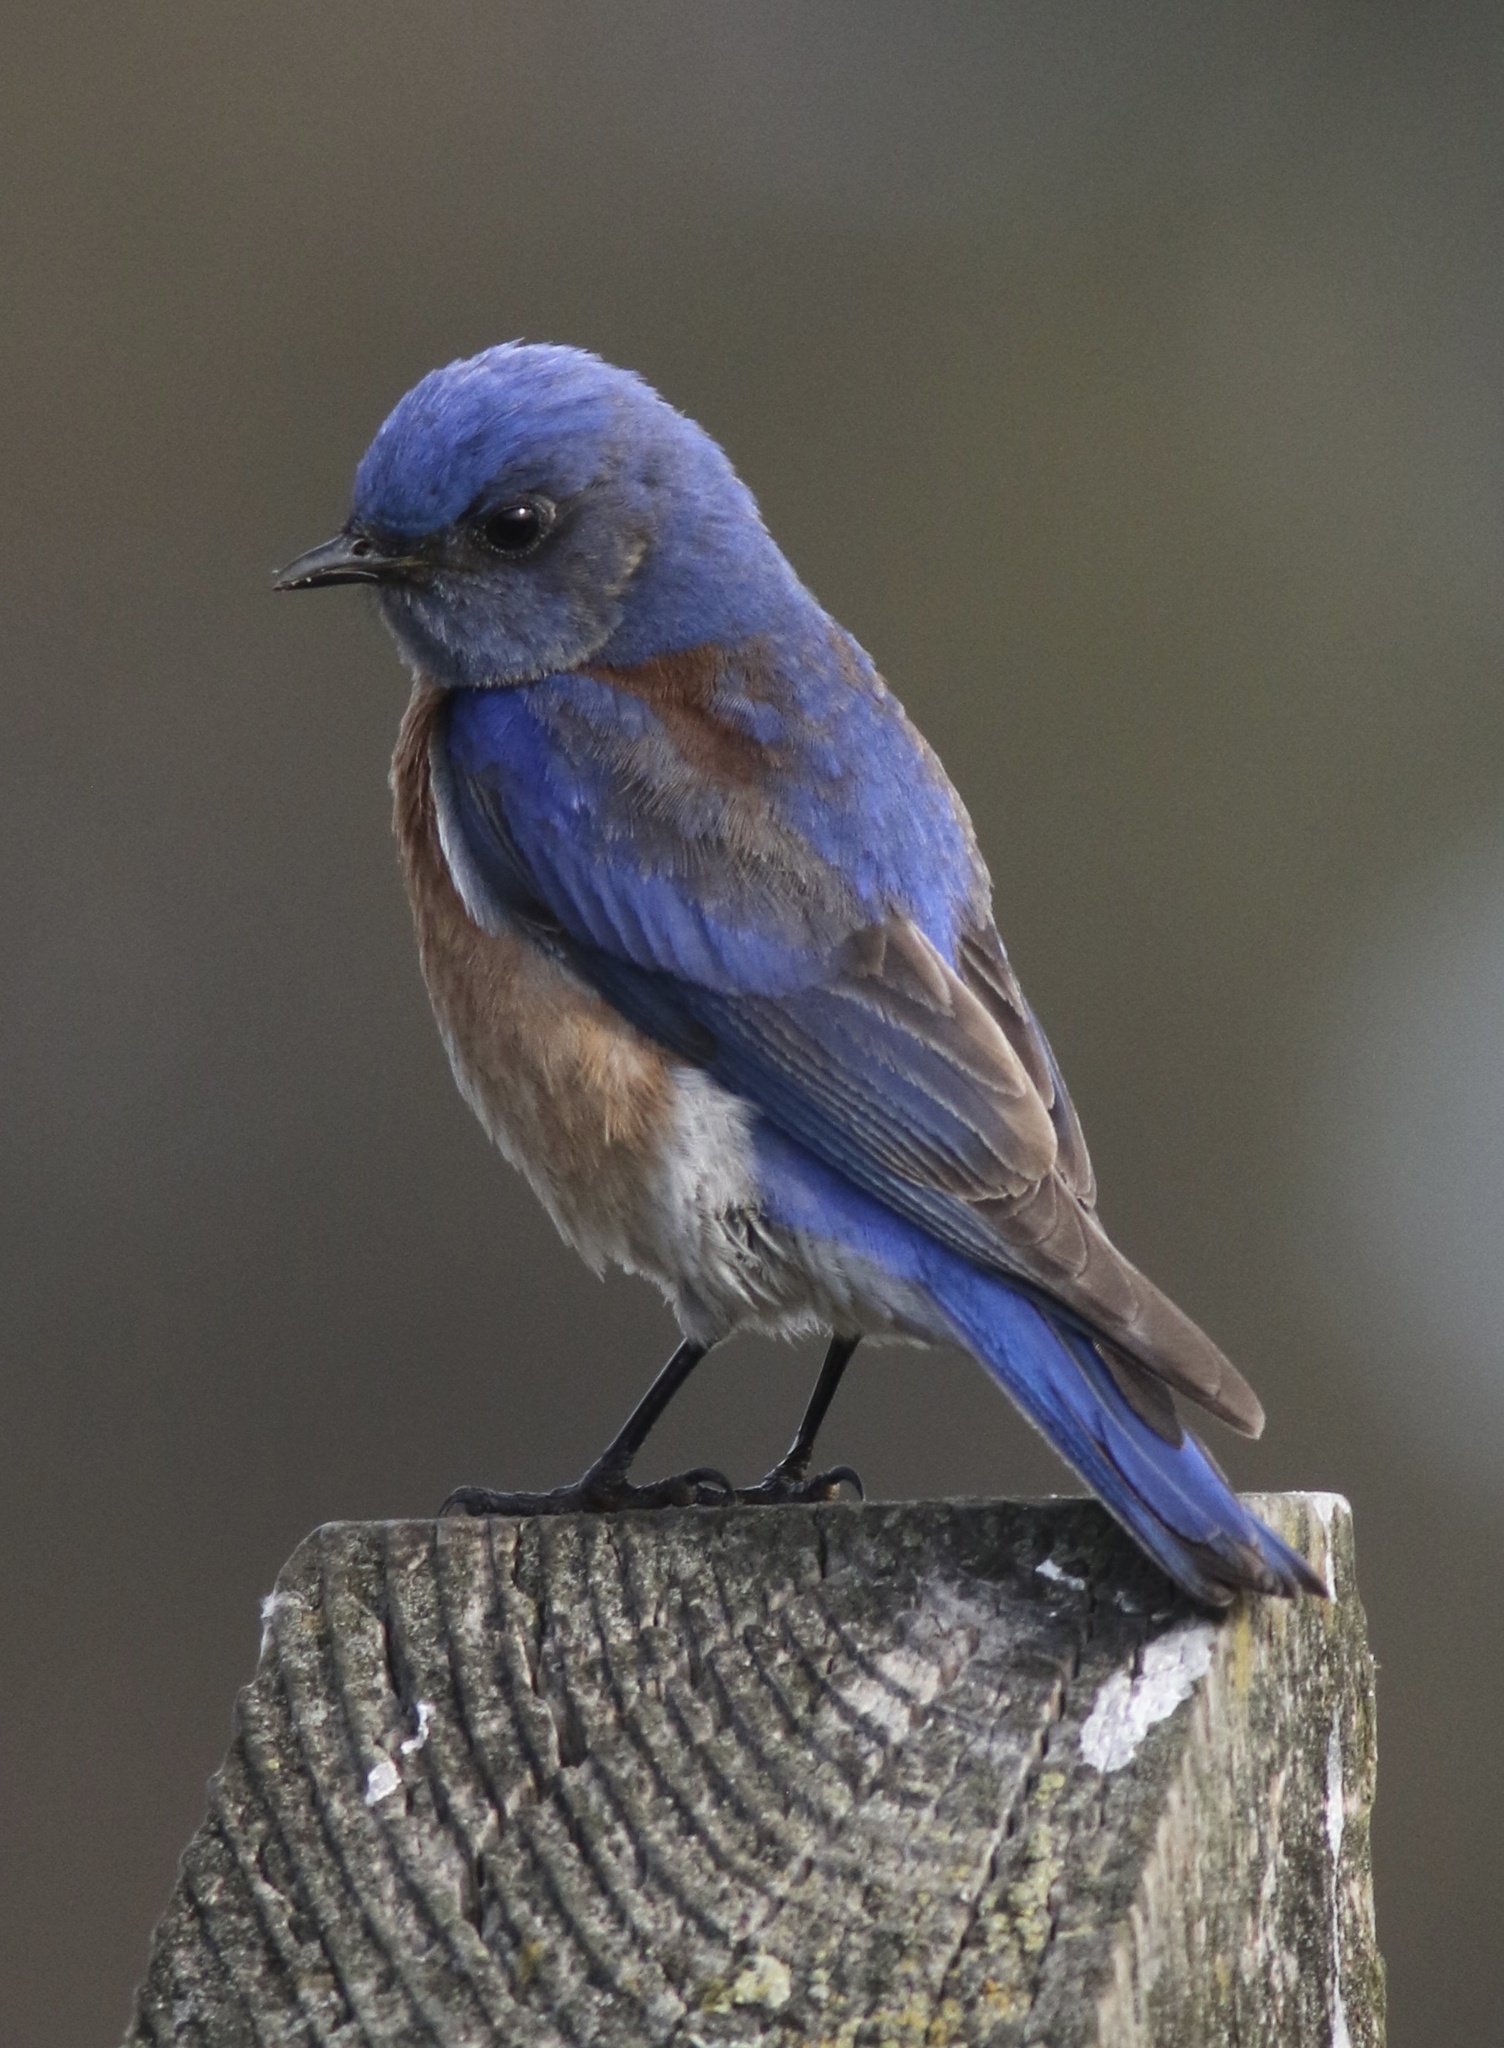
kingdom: Animalia
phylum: Chordata
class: Aves
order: Passeriformes
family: Turdidae
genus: Sialia
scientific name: Sialia mexicana
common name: Western bluebird
